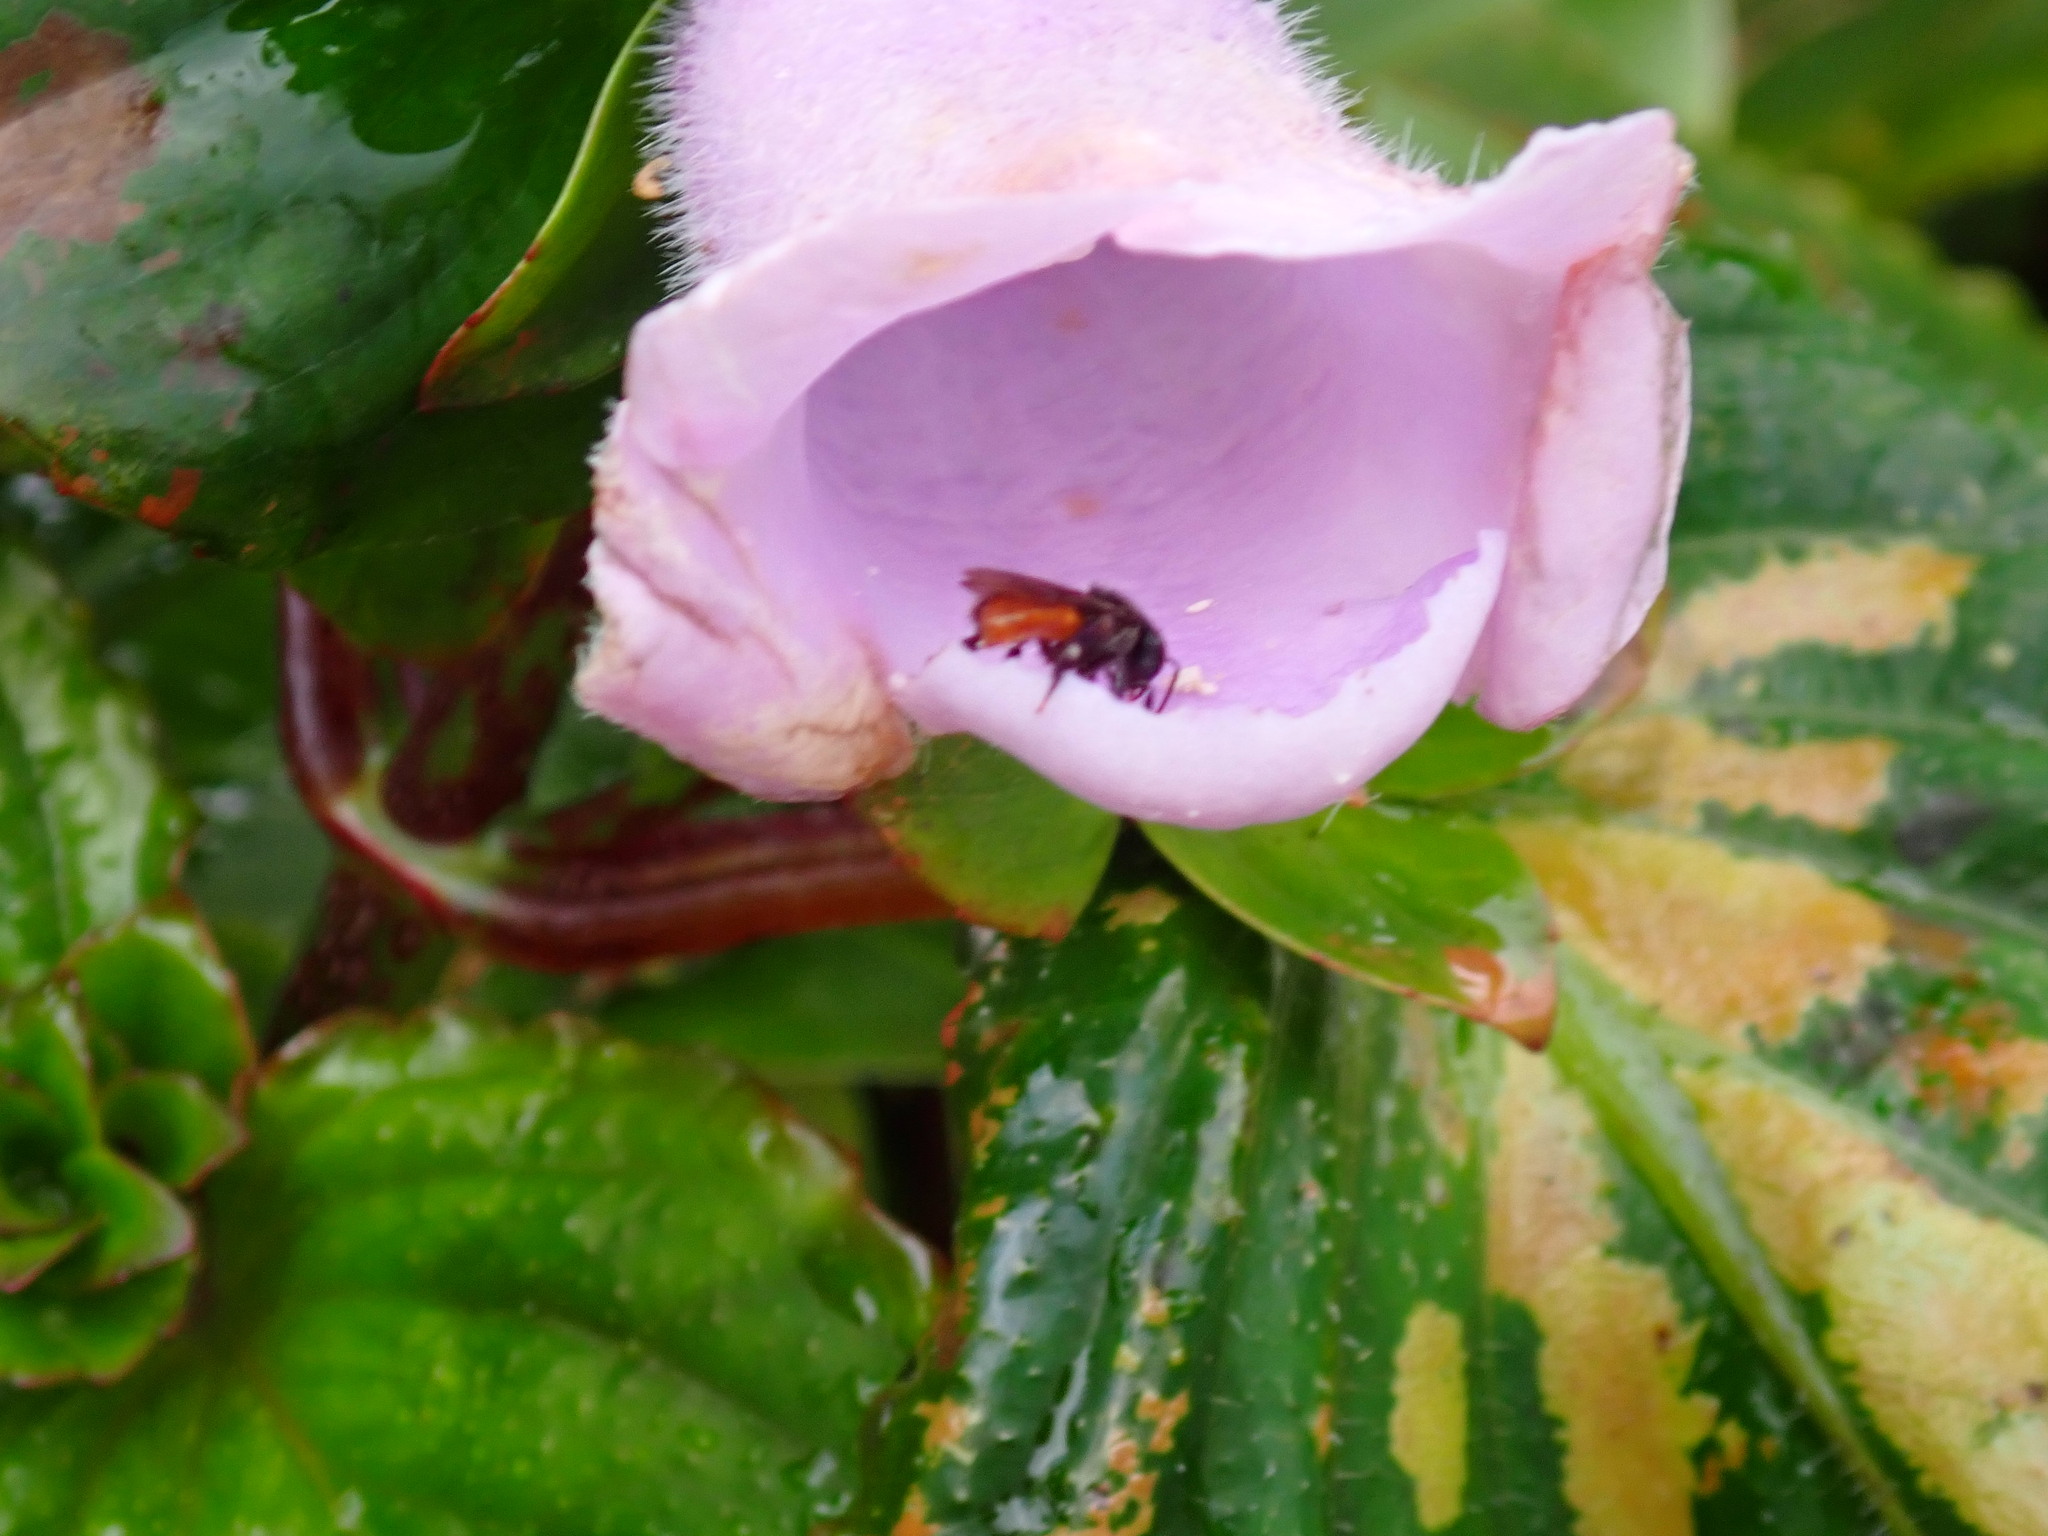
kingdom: Animalia
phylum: Arthropoda
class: Insecta
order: Hymenoptera
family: Apidae
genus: Trigona
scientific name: Trigona fulviventris
